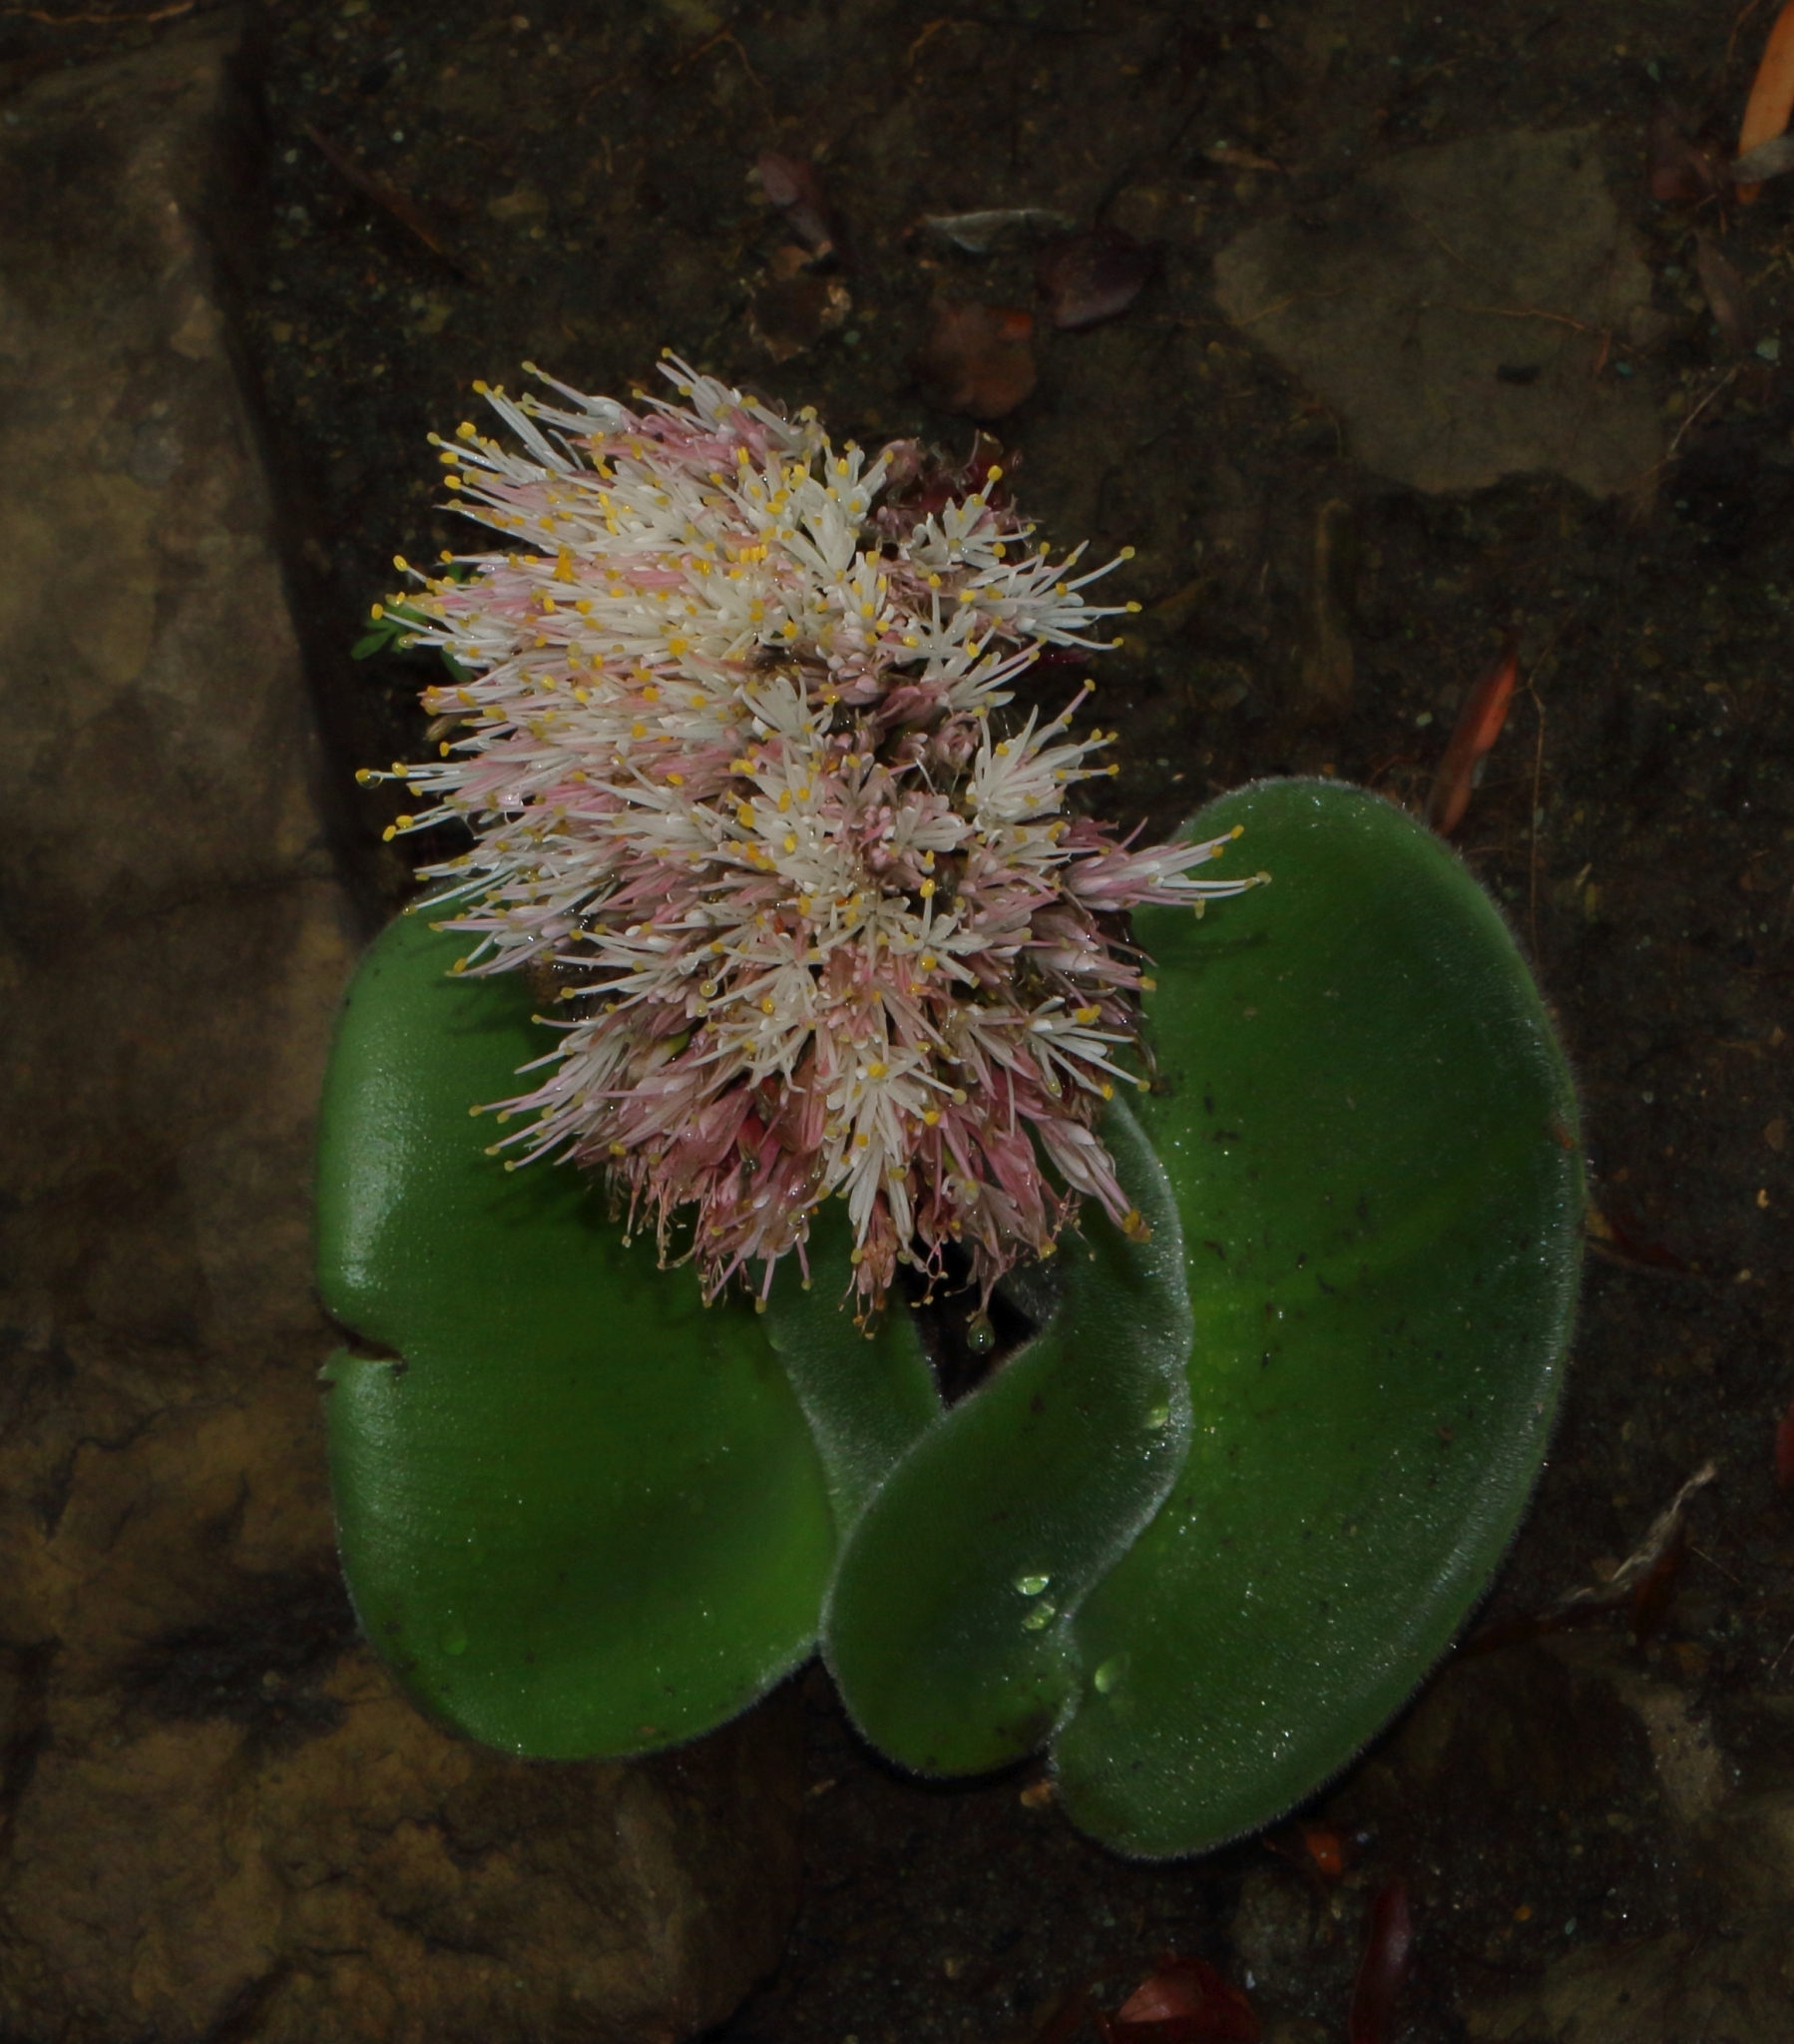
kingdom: Plantae
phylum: Tracheophyta
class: Liliopsida
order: Asparagales
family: Amaryllidaceae
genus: Haemanthus
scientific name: Haemanthus humilis
